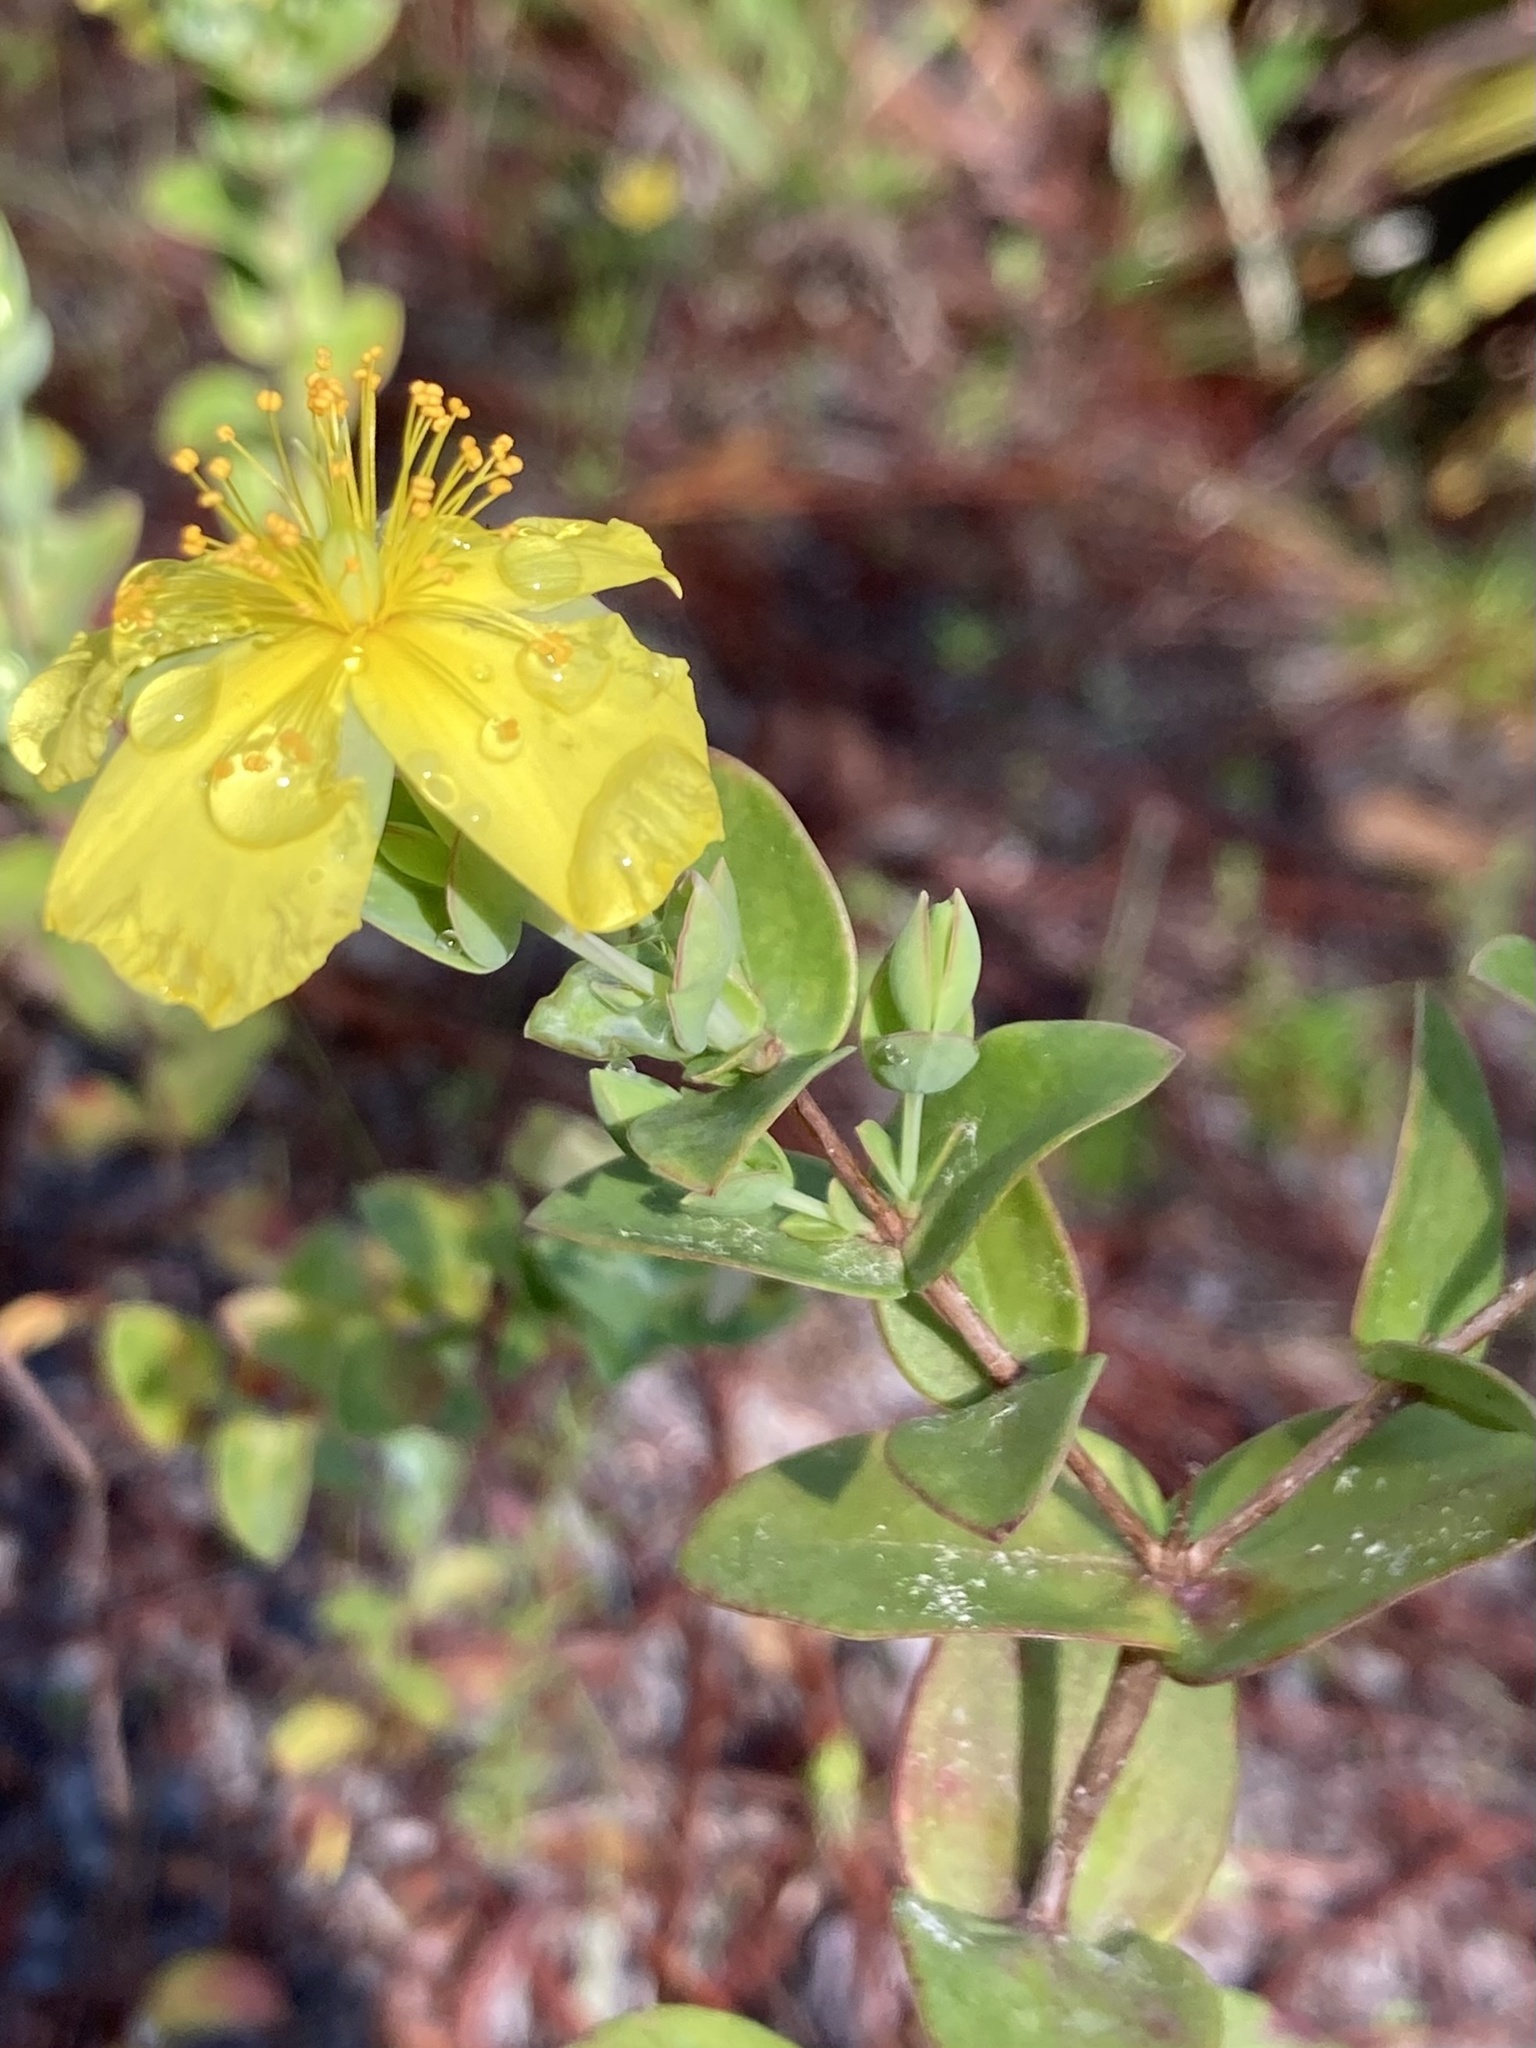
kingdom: Plantae
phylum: Tracheophyta
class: Magnoliopsida
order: Malpighiales
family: Hypericaceae
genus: Hypericum
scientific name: Hypericum tetrapetalum
